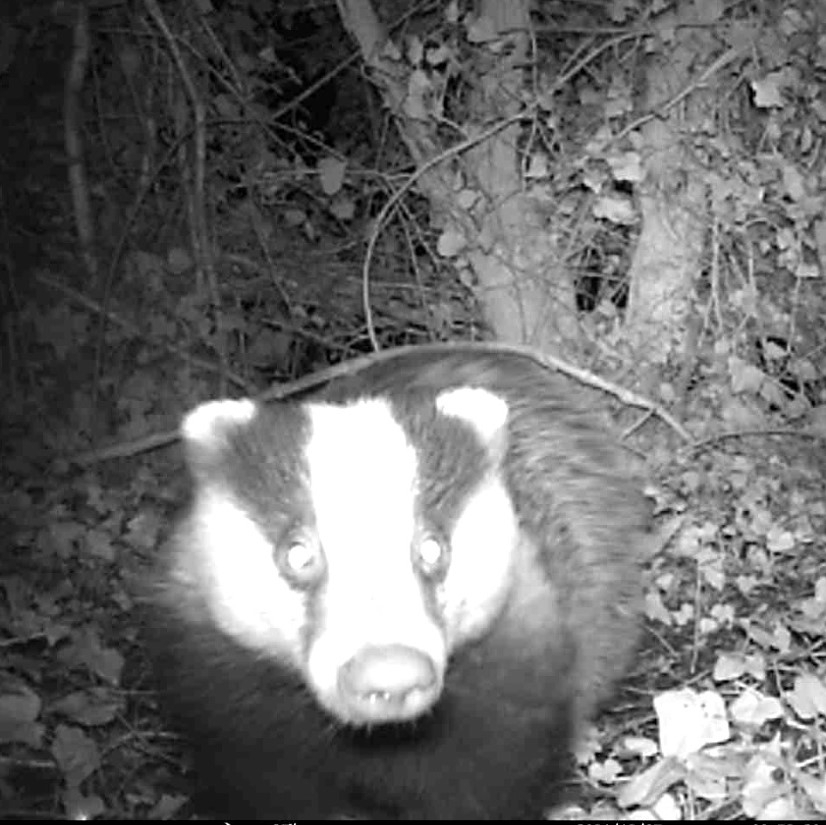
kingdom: Animalia
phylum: Chordata
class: Mammalia
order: Carnivora
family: Mustelidae
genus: Meles
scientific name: Meles meles
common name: Eurasian badger
